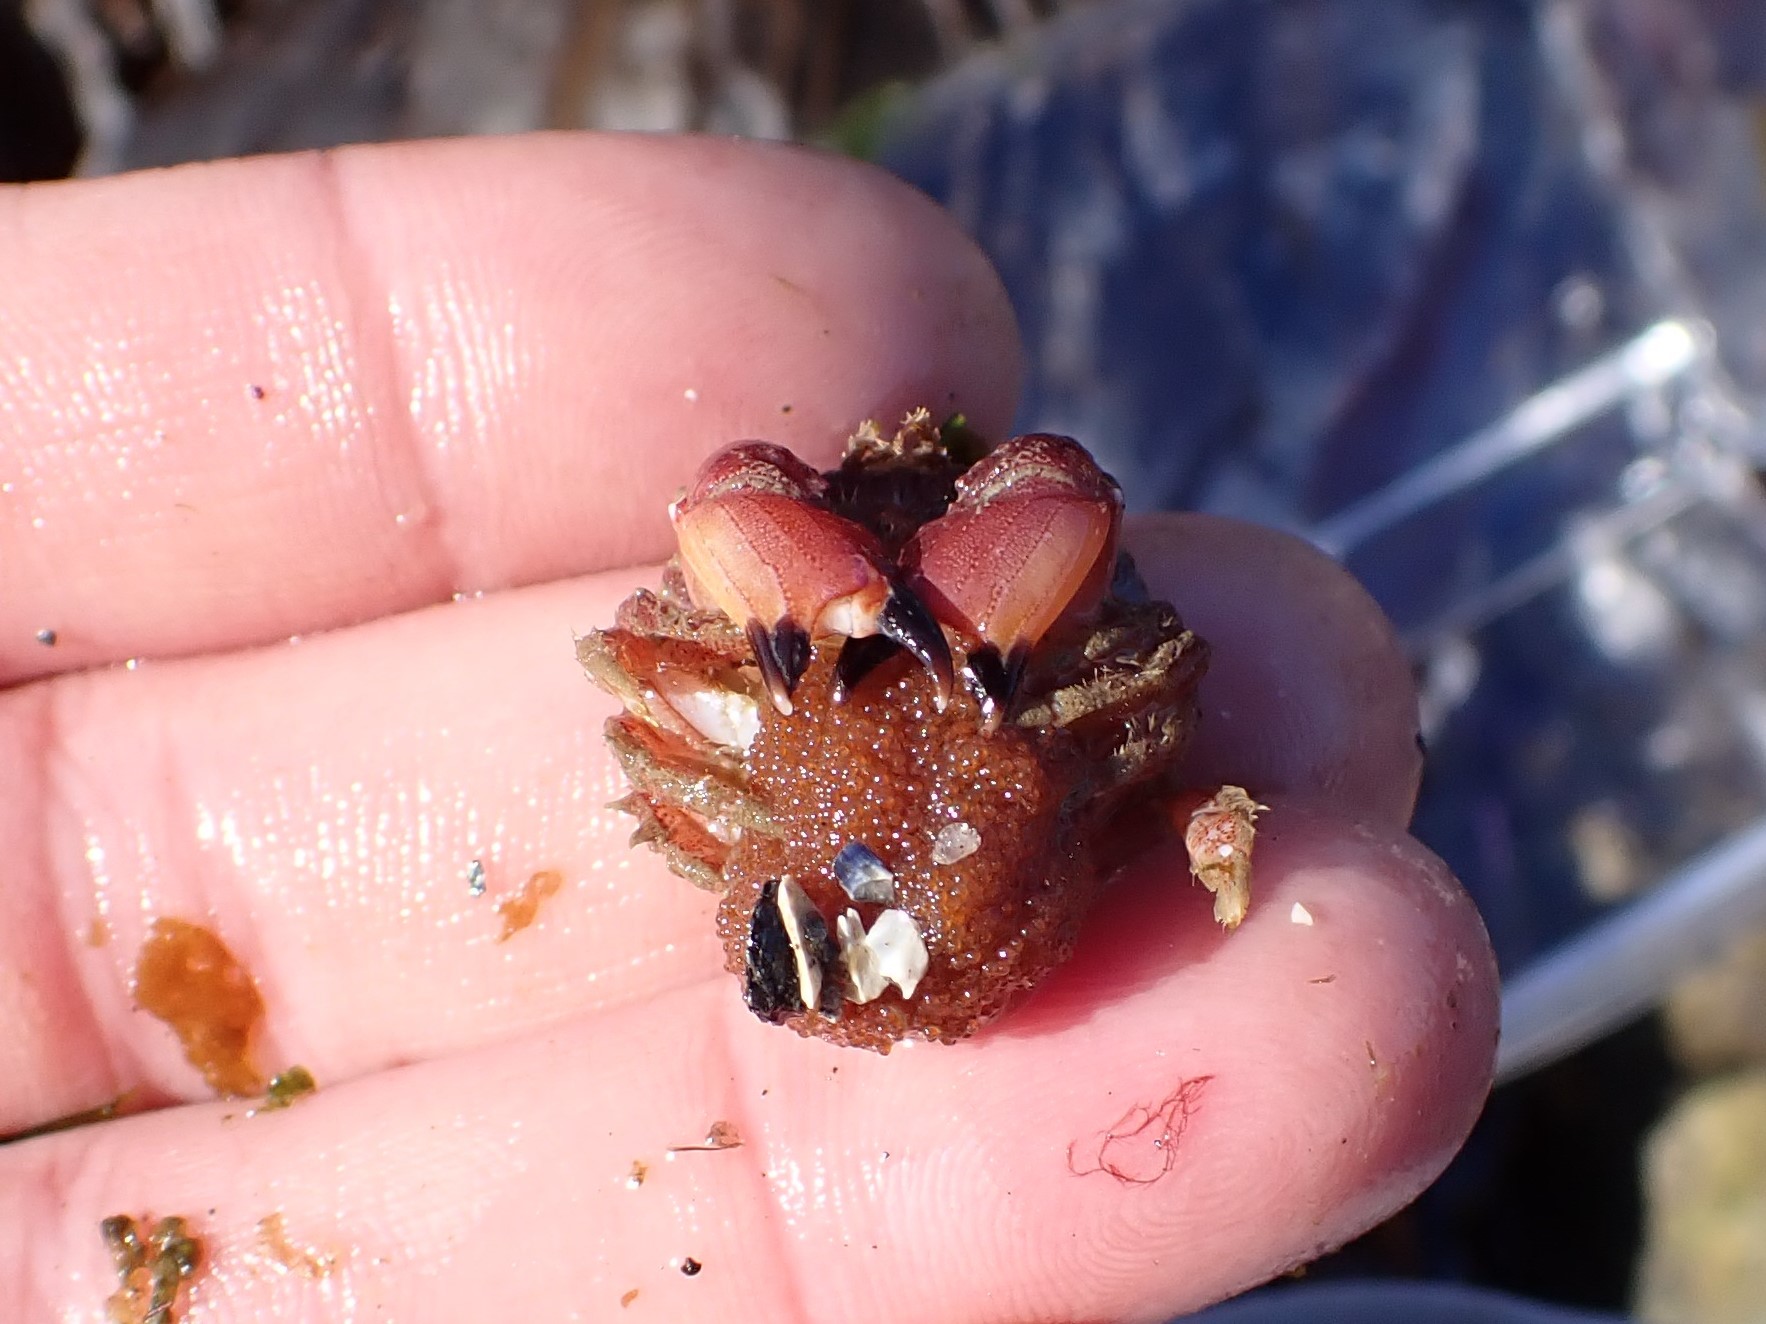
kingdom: Animalia
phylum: Arthropoda
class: Malacostraca
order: Decapoda
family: Cancridae
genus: Glebocarcinus
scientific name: Glebocarcinus oregonensis
